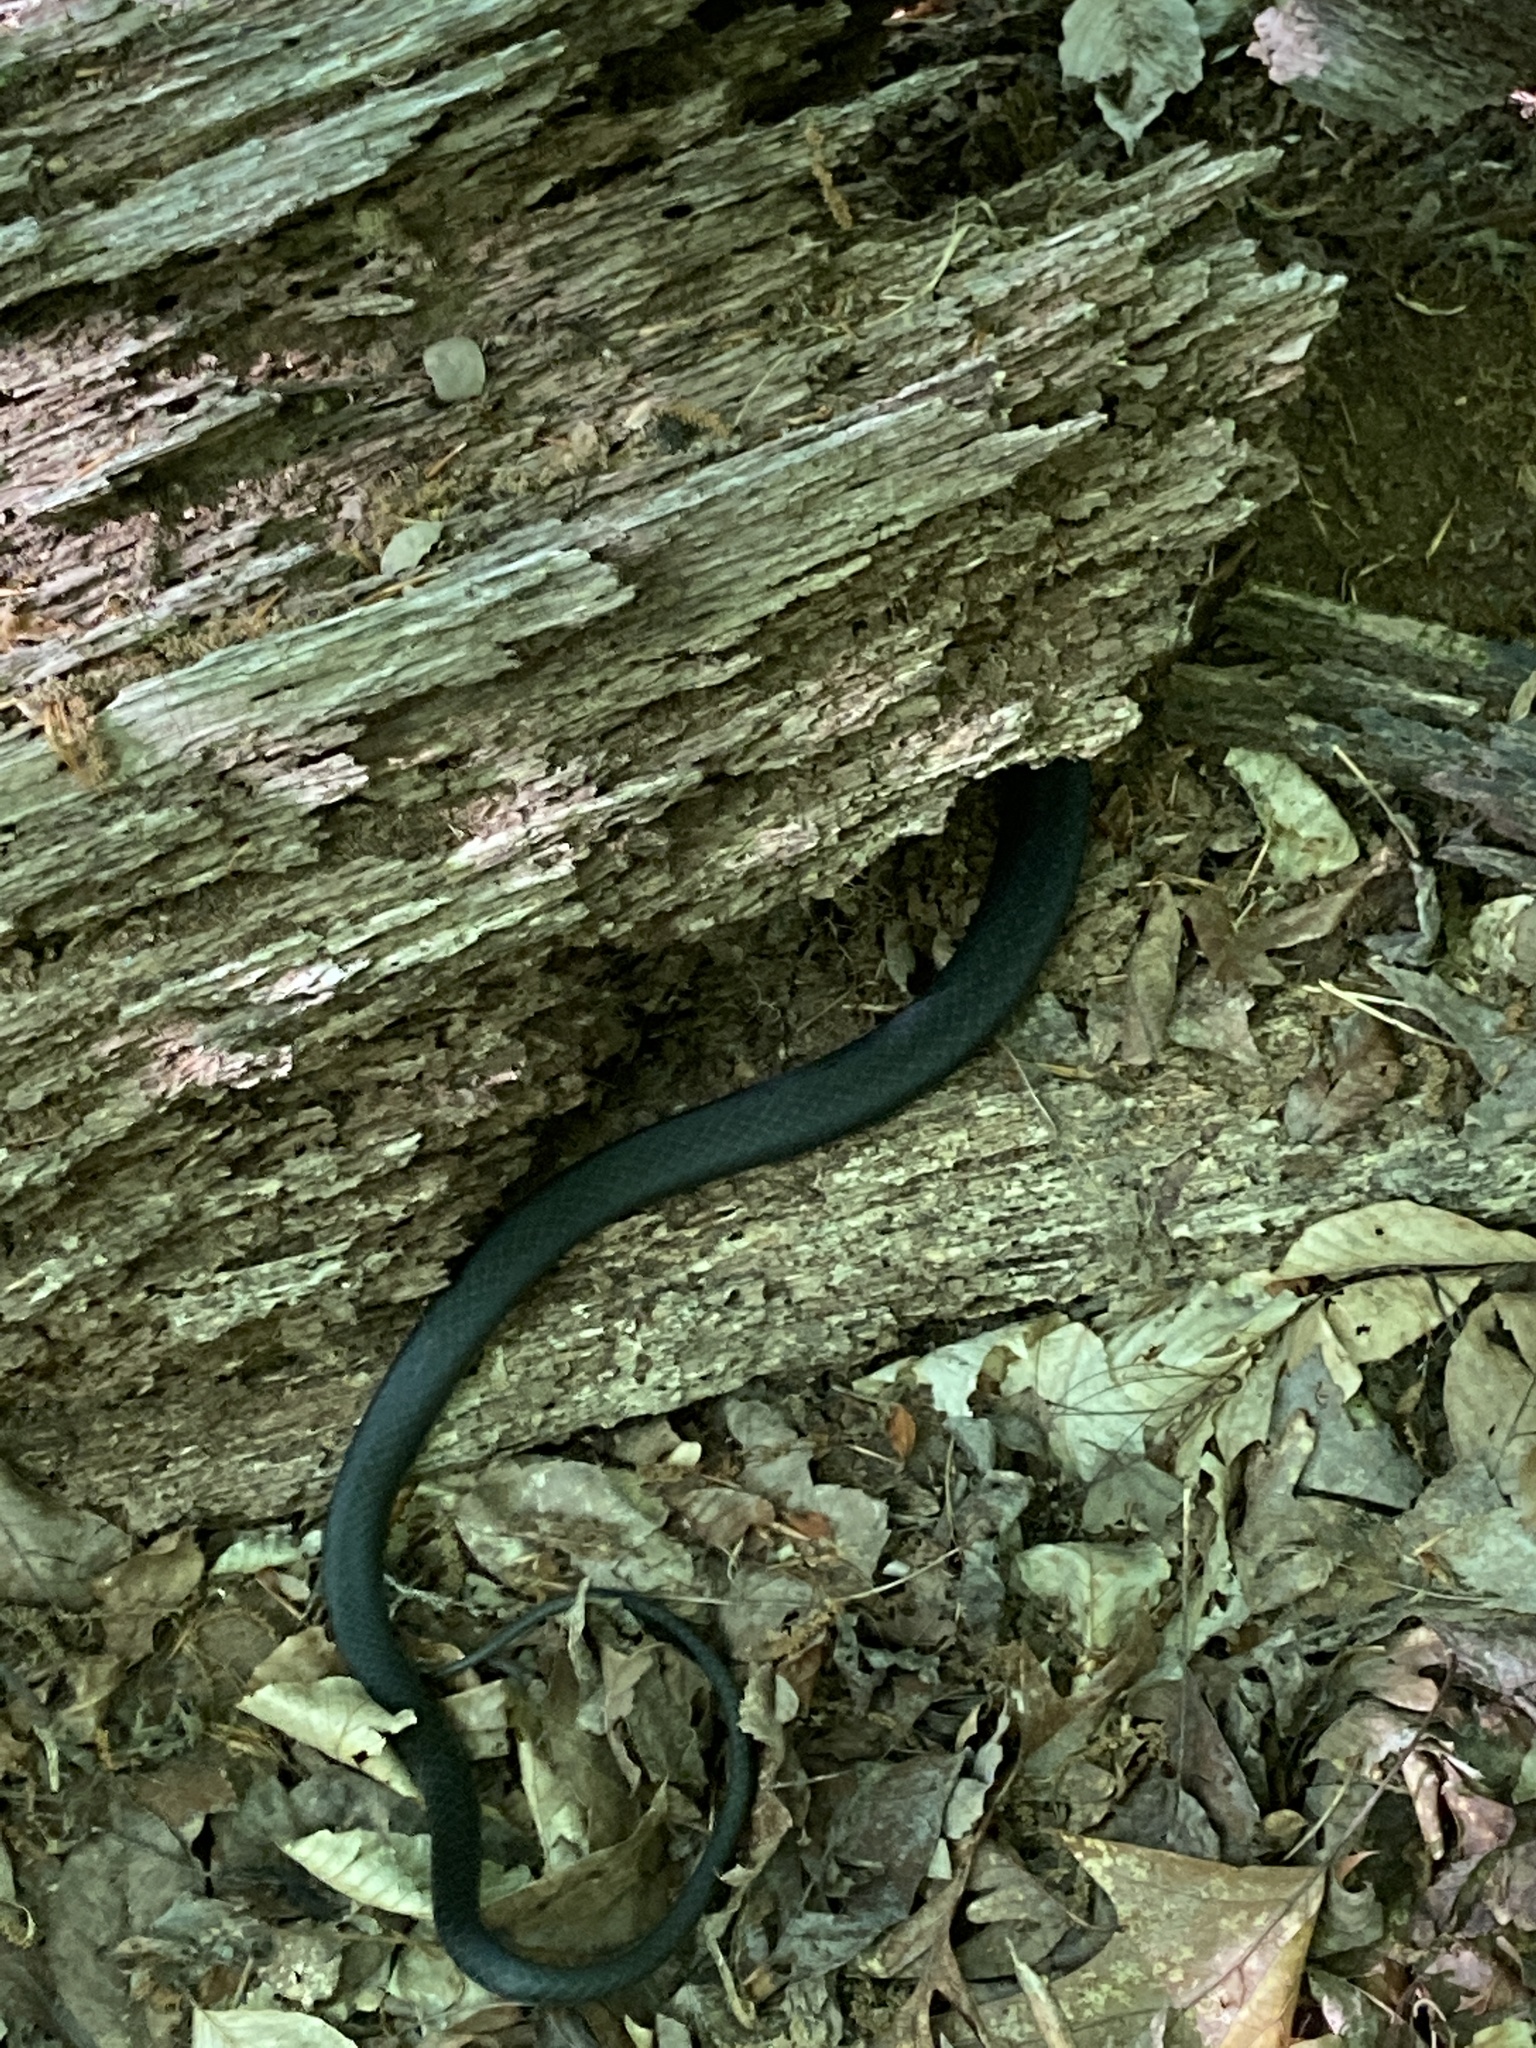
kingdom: Animalia
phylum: Chordata
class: Squamata
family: Colubridae
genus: Coluber
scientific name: Coluber constrictor
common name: Eastern racer
